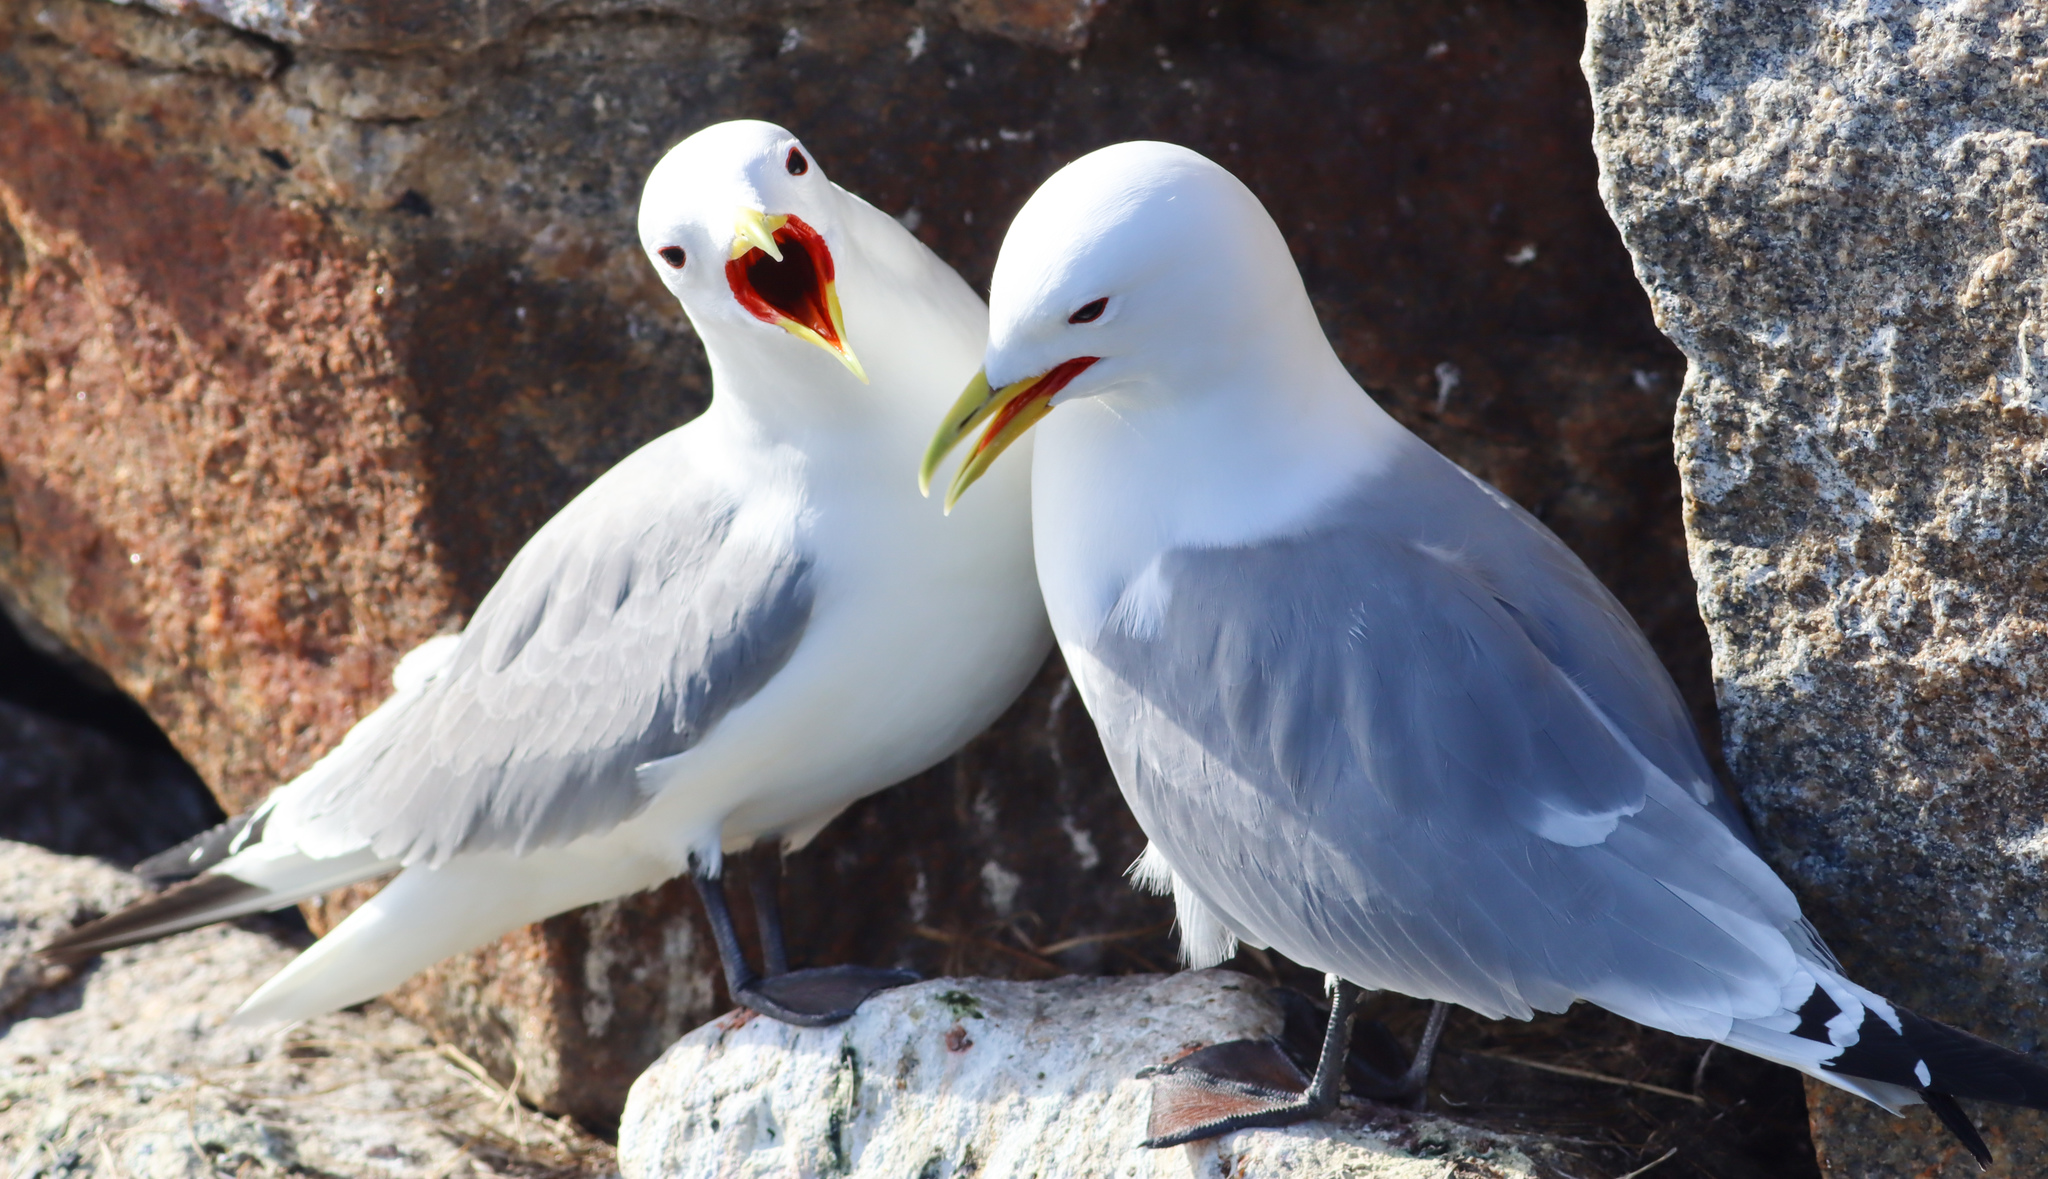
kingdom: Animalia
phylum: Chordata
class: Aves
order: Charadriiformes
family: Laridae
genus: Rissa
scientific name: Rissa tridactyla
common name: Black-legged kittiwake
